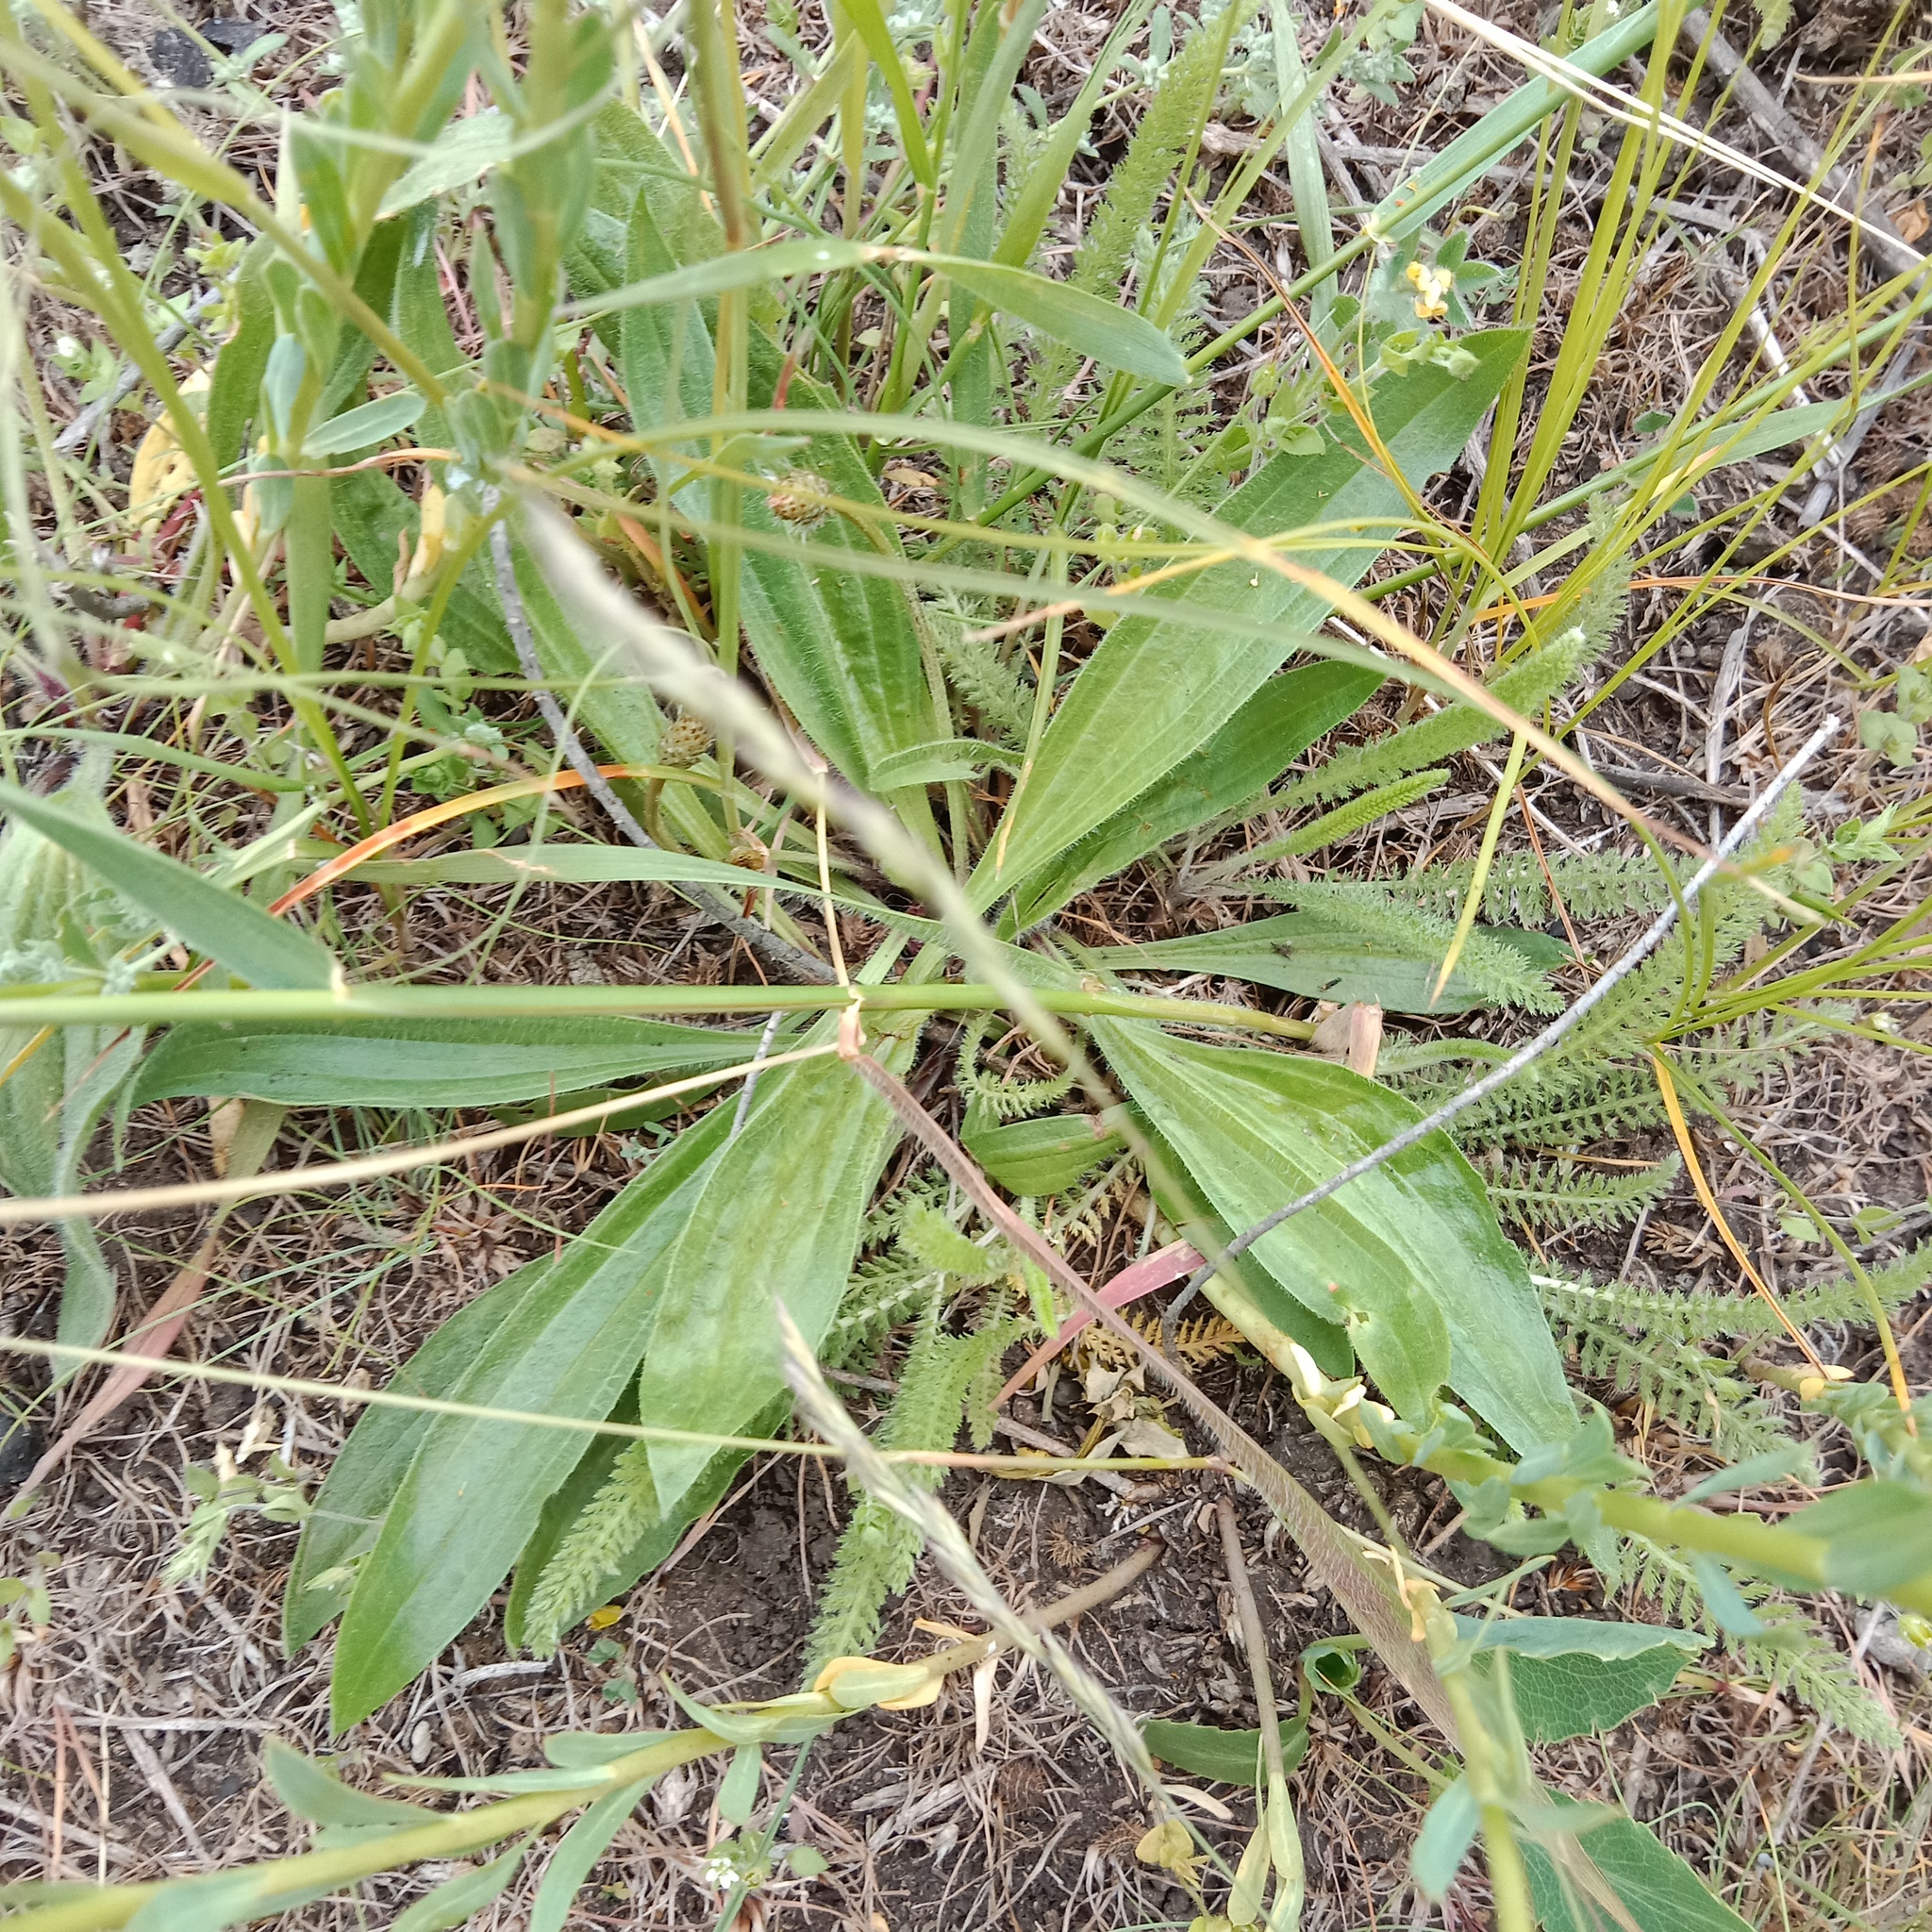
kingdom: Plantae
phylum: Tracheophyta
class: Magnoliopsida
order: Lamiales
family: Plantaginaceae
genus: Plantago
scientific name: Plantago urvillei
